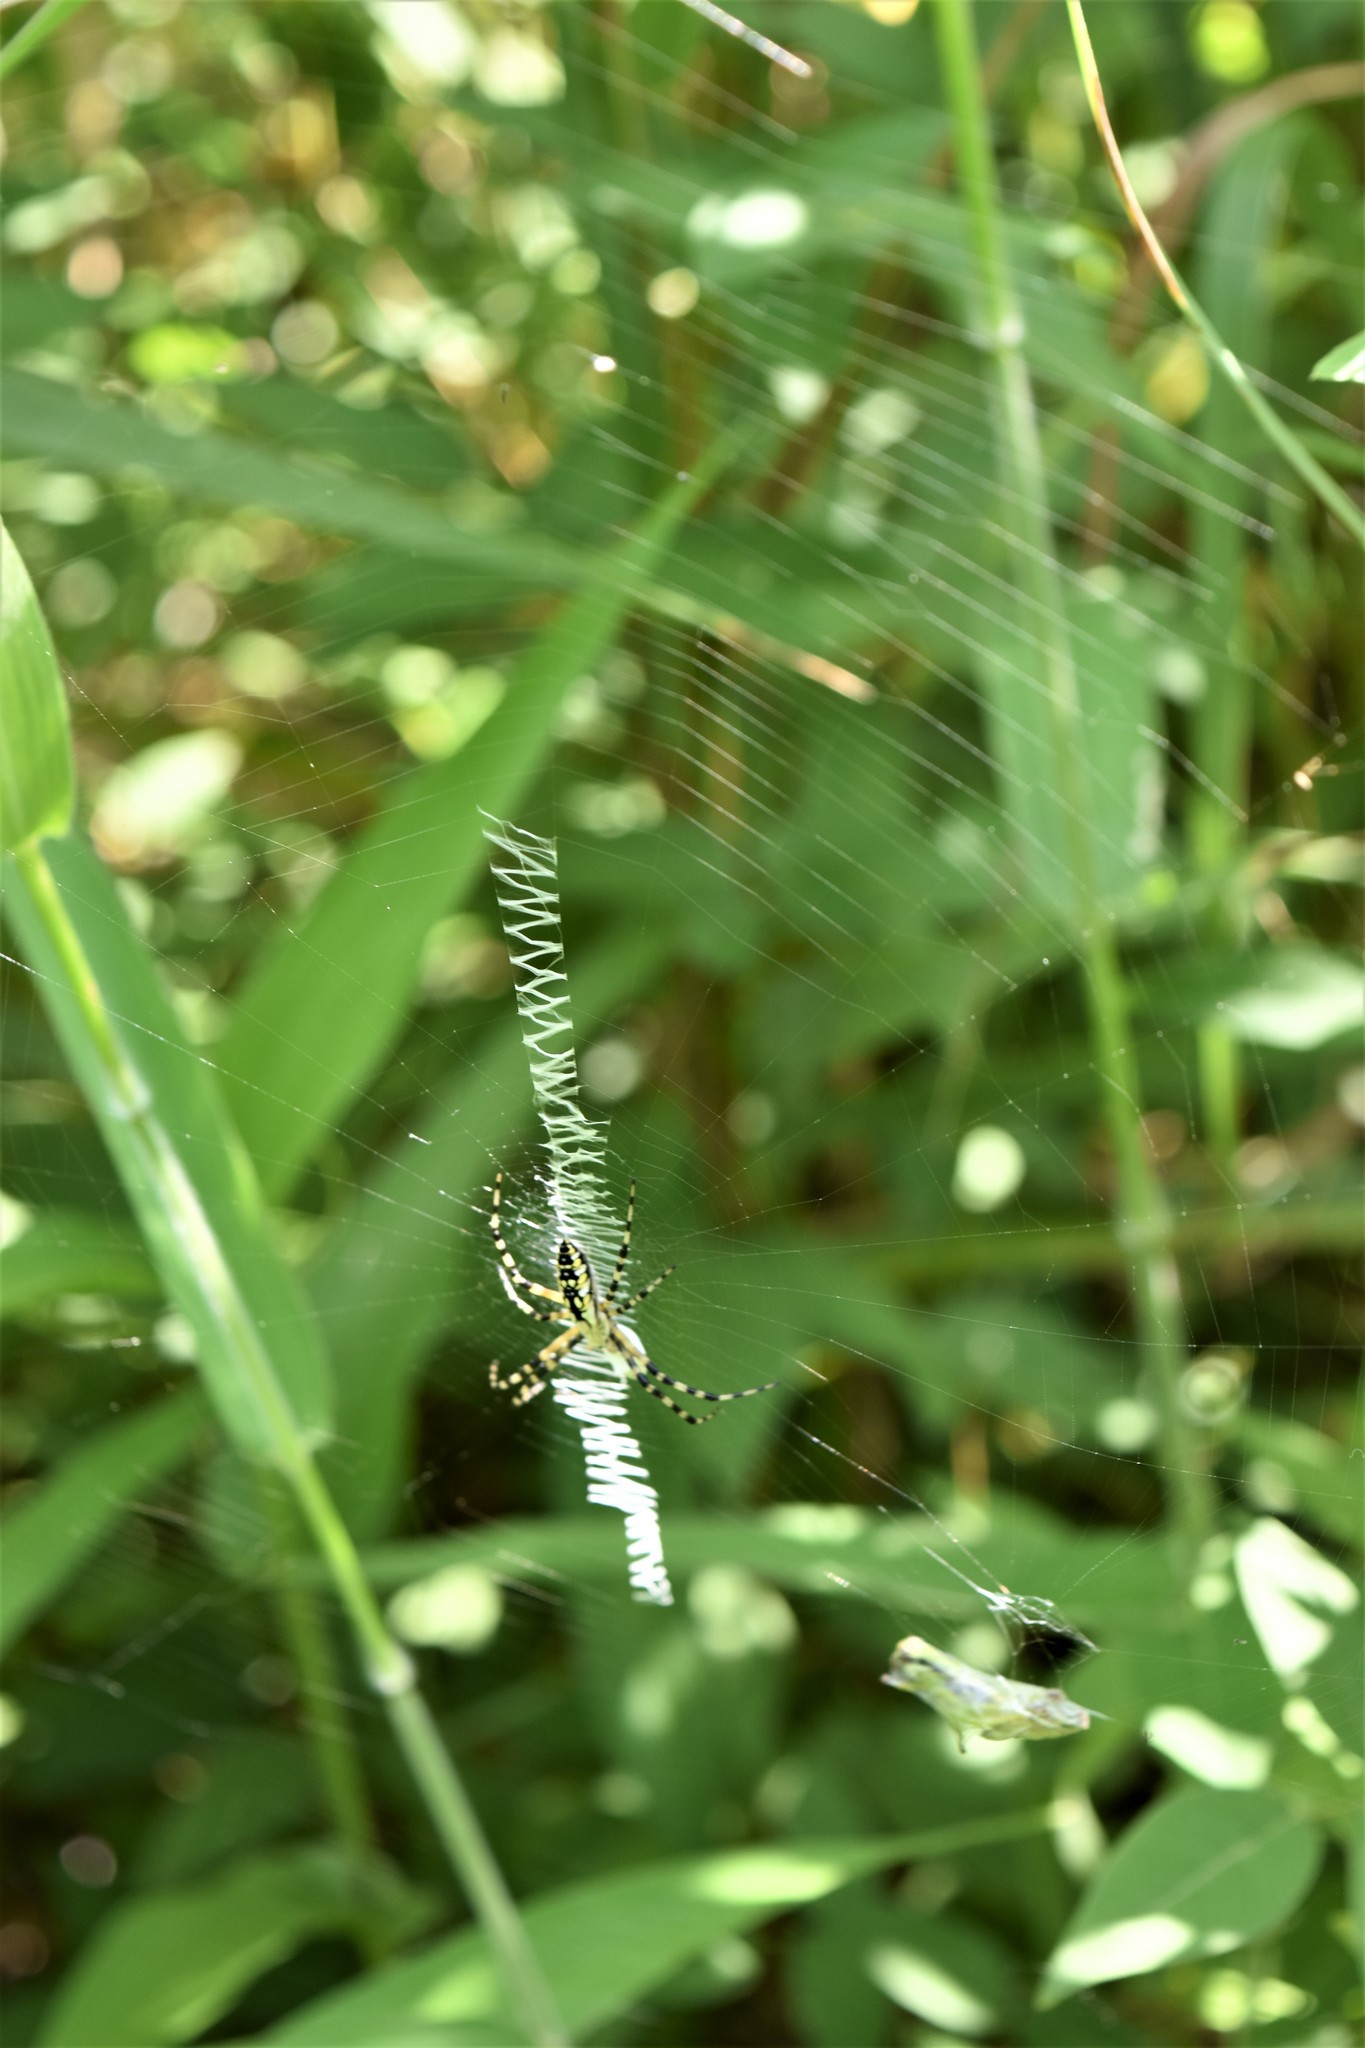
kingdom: Animalia
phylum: Arthropoda
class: Arachnida
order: Araneae
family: Araneidae
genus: Argiope
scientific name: Argiope aurantia
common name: Orb weavers
